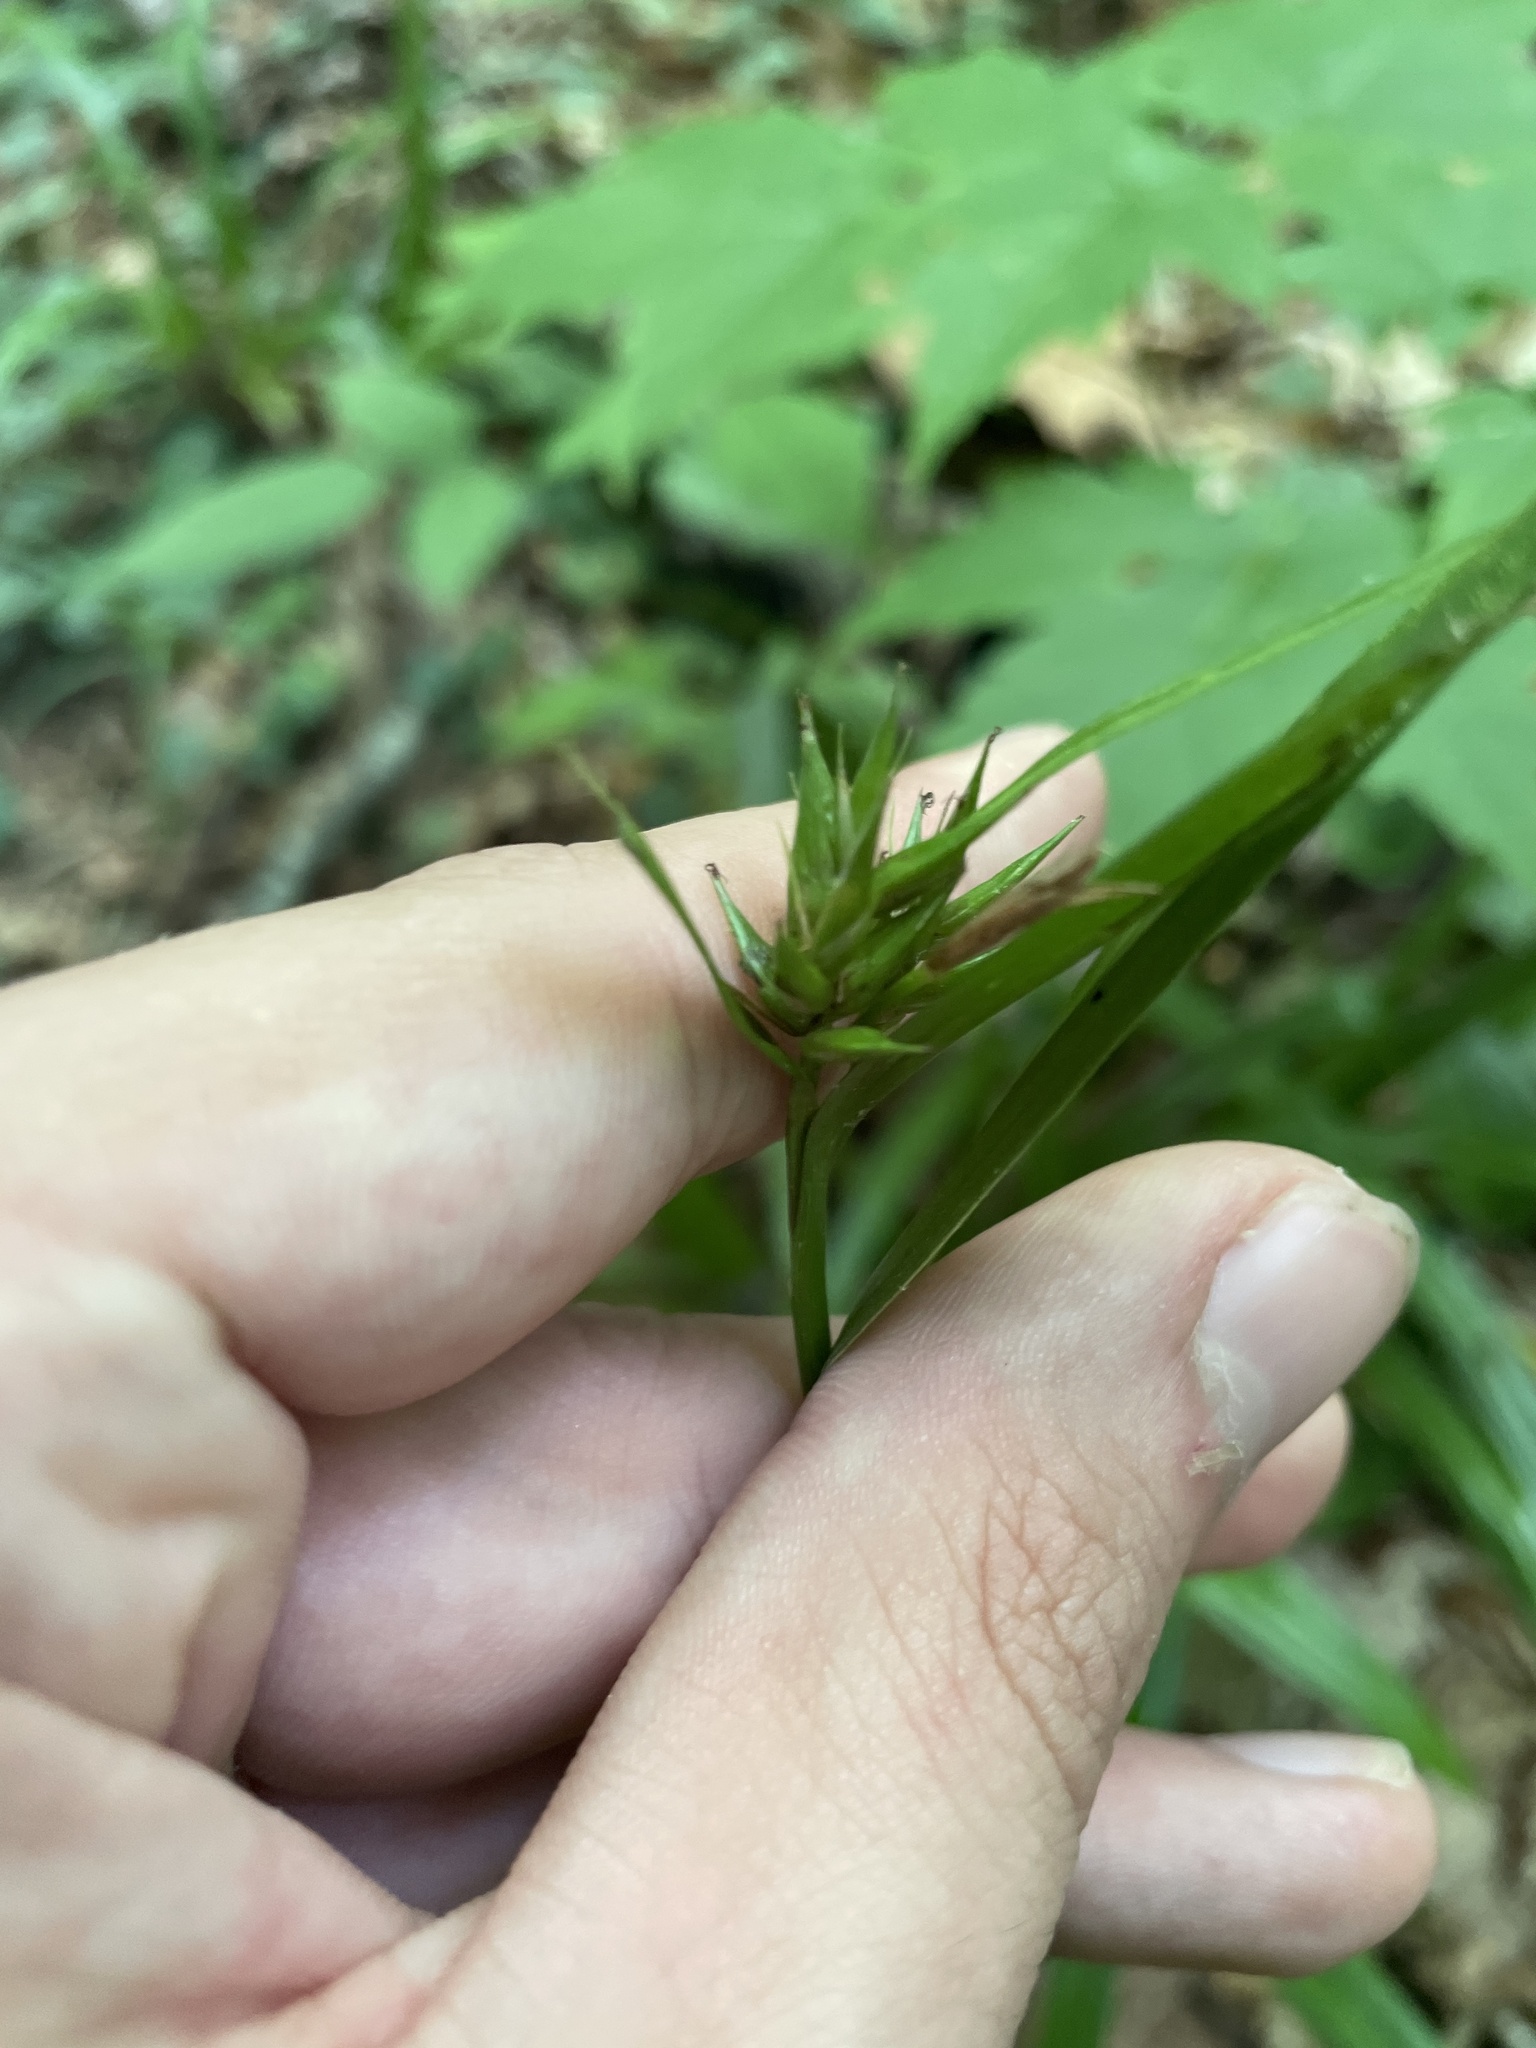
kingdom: Plantae
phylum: Tracheophyta
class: Liliopsida
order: Poales
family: Cyperaceae
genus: Carex
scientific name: Carex folliculata
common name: Northern long sedge
